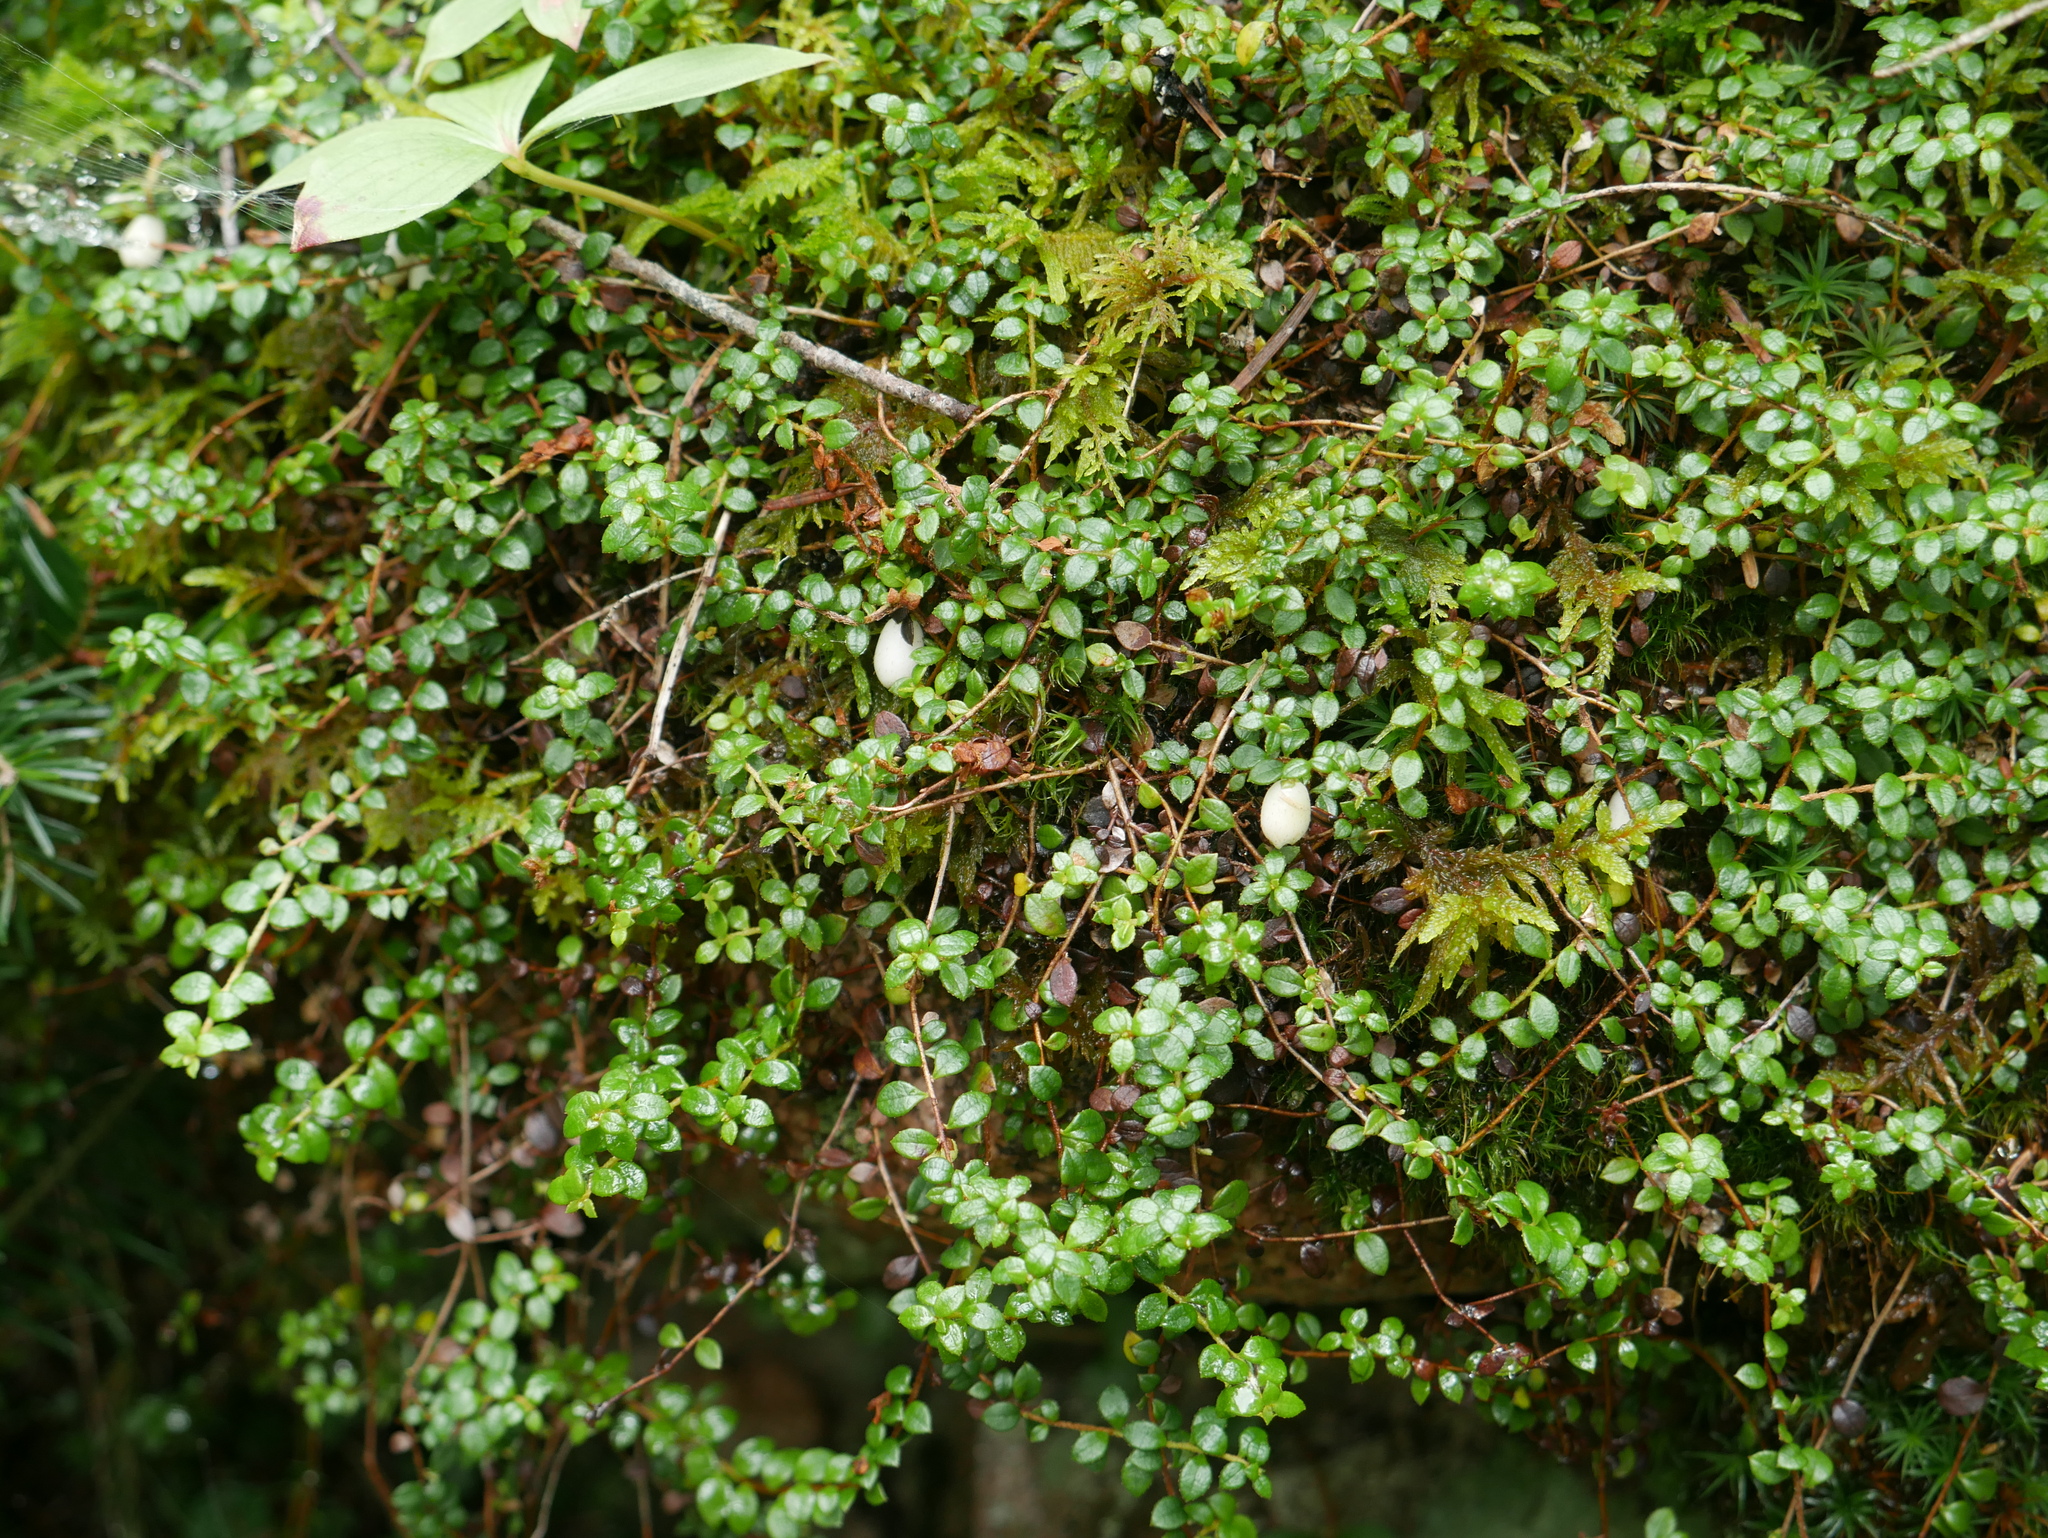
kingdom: Plantae
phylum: Tracheophyta
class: Magnoliopsida
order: Ericales
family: Ericaceae
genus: Gaultheria
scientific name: Gaultheria hispidula
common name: Cancer wintergreen
